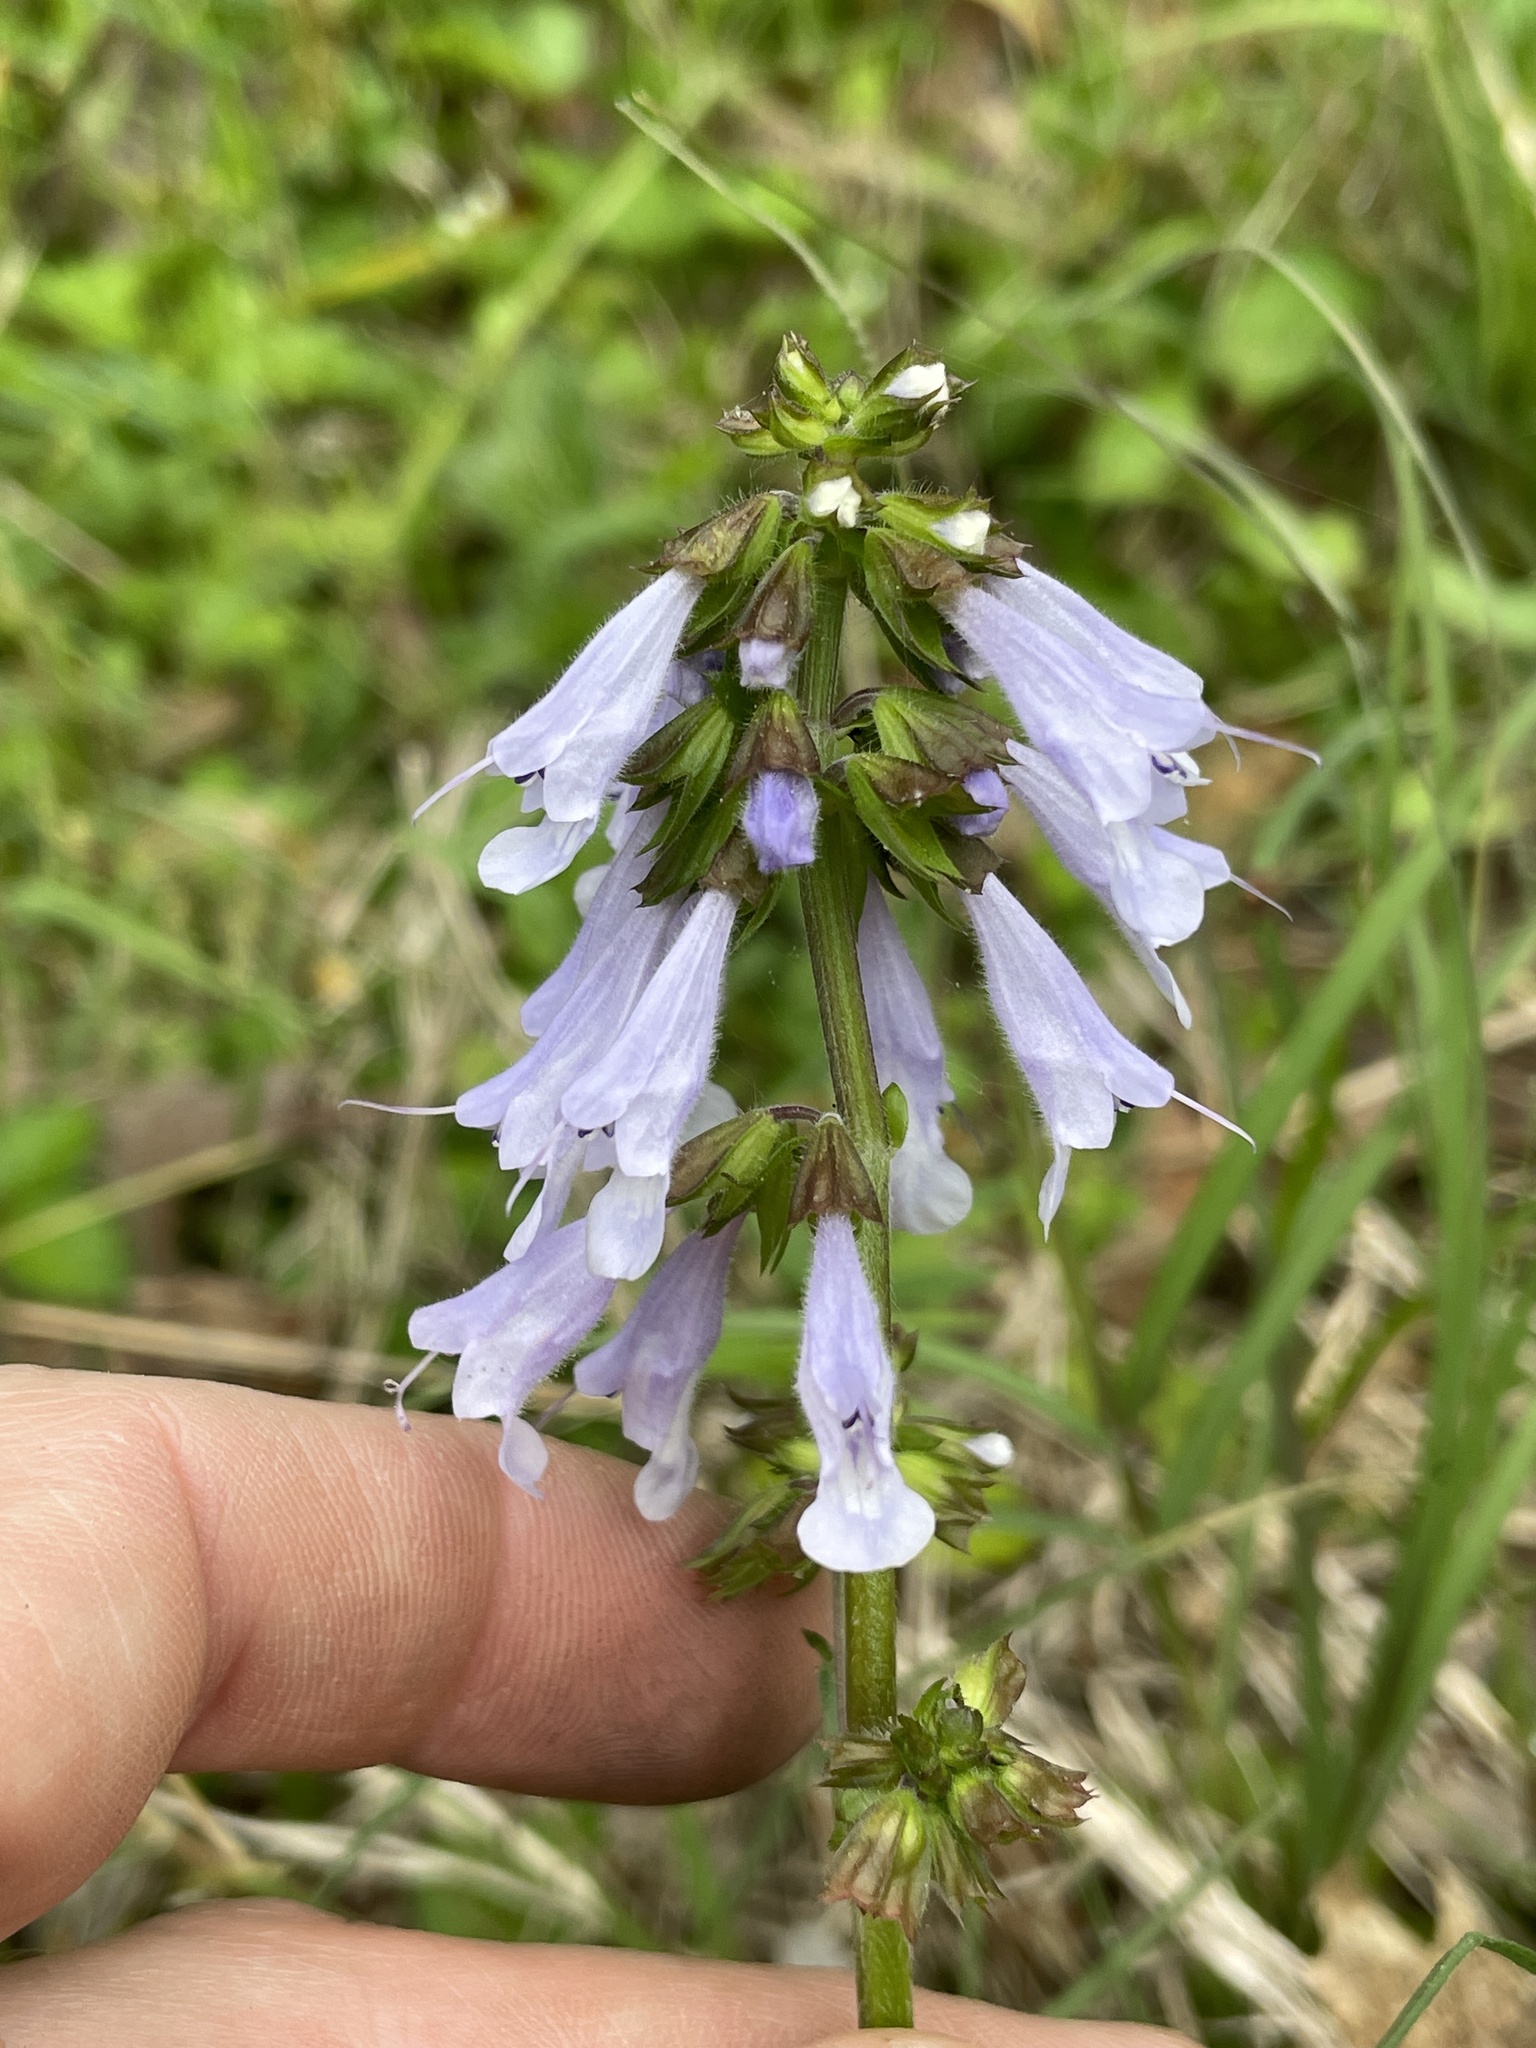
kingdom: Plantae
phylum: Tracheophyta
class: Magnoliopsida
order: Lamiales
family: Lamiaceae
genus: Salvia
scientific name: Salvia lyrata
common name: Cancerweed
